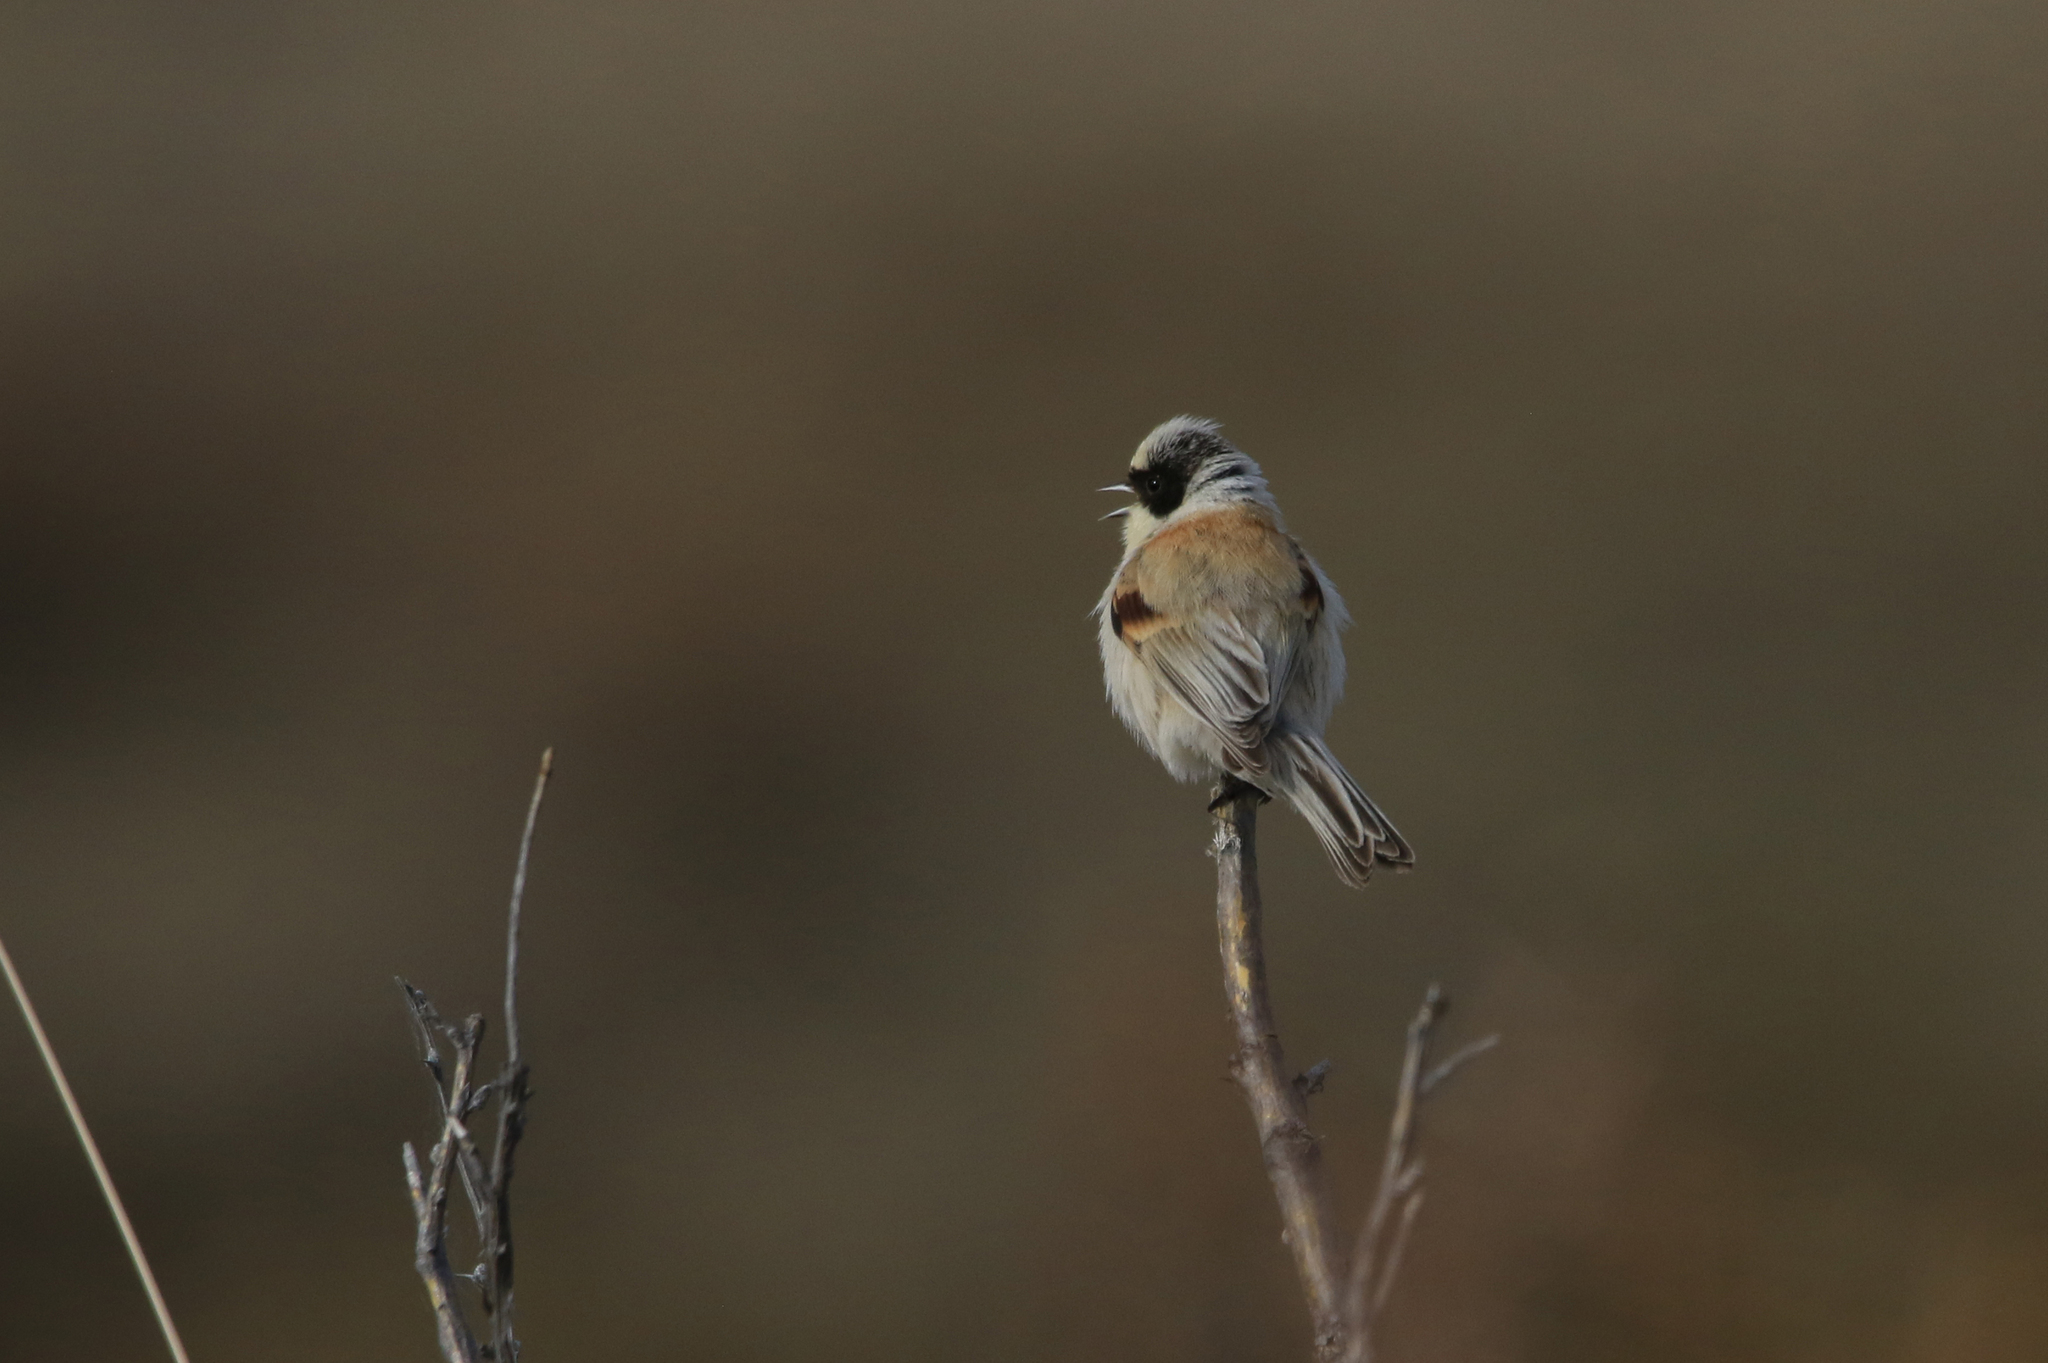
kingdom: Animalia
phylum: Chordata
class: Aves
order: Passeriformes
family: Remizidae
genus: Remiz
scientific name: Remiz coronatus
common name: White-crowned penduline tit
